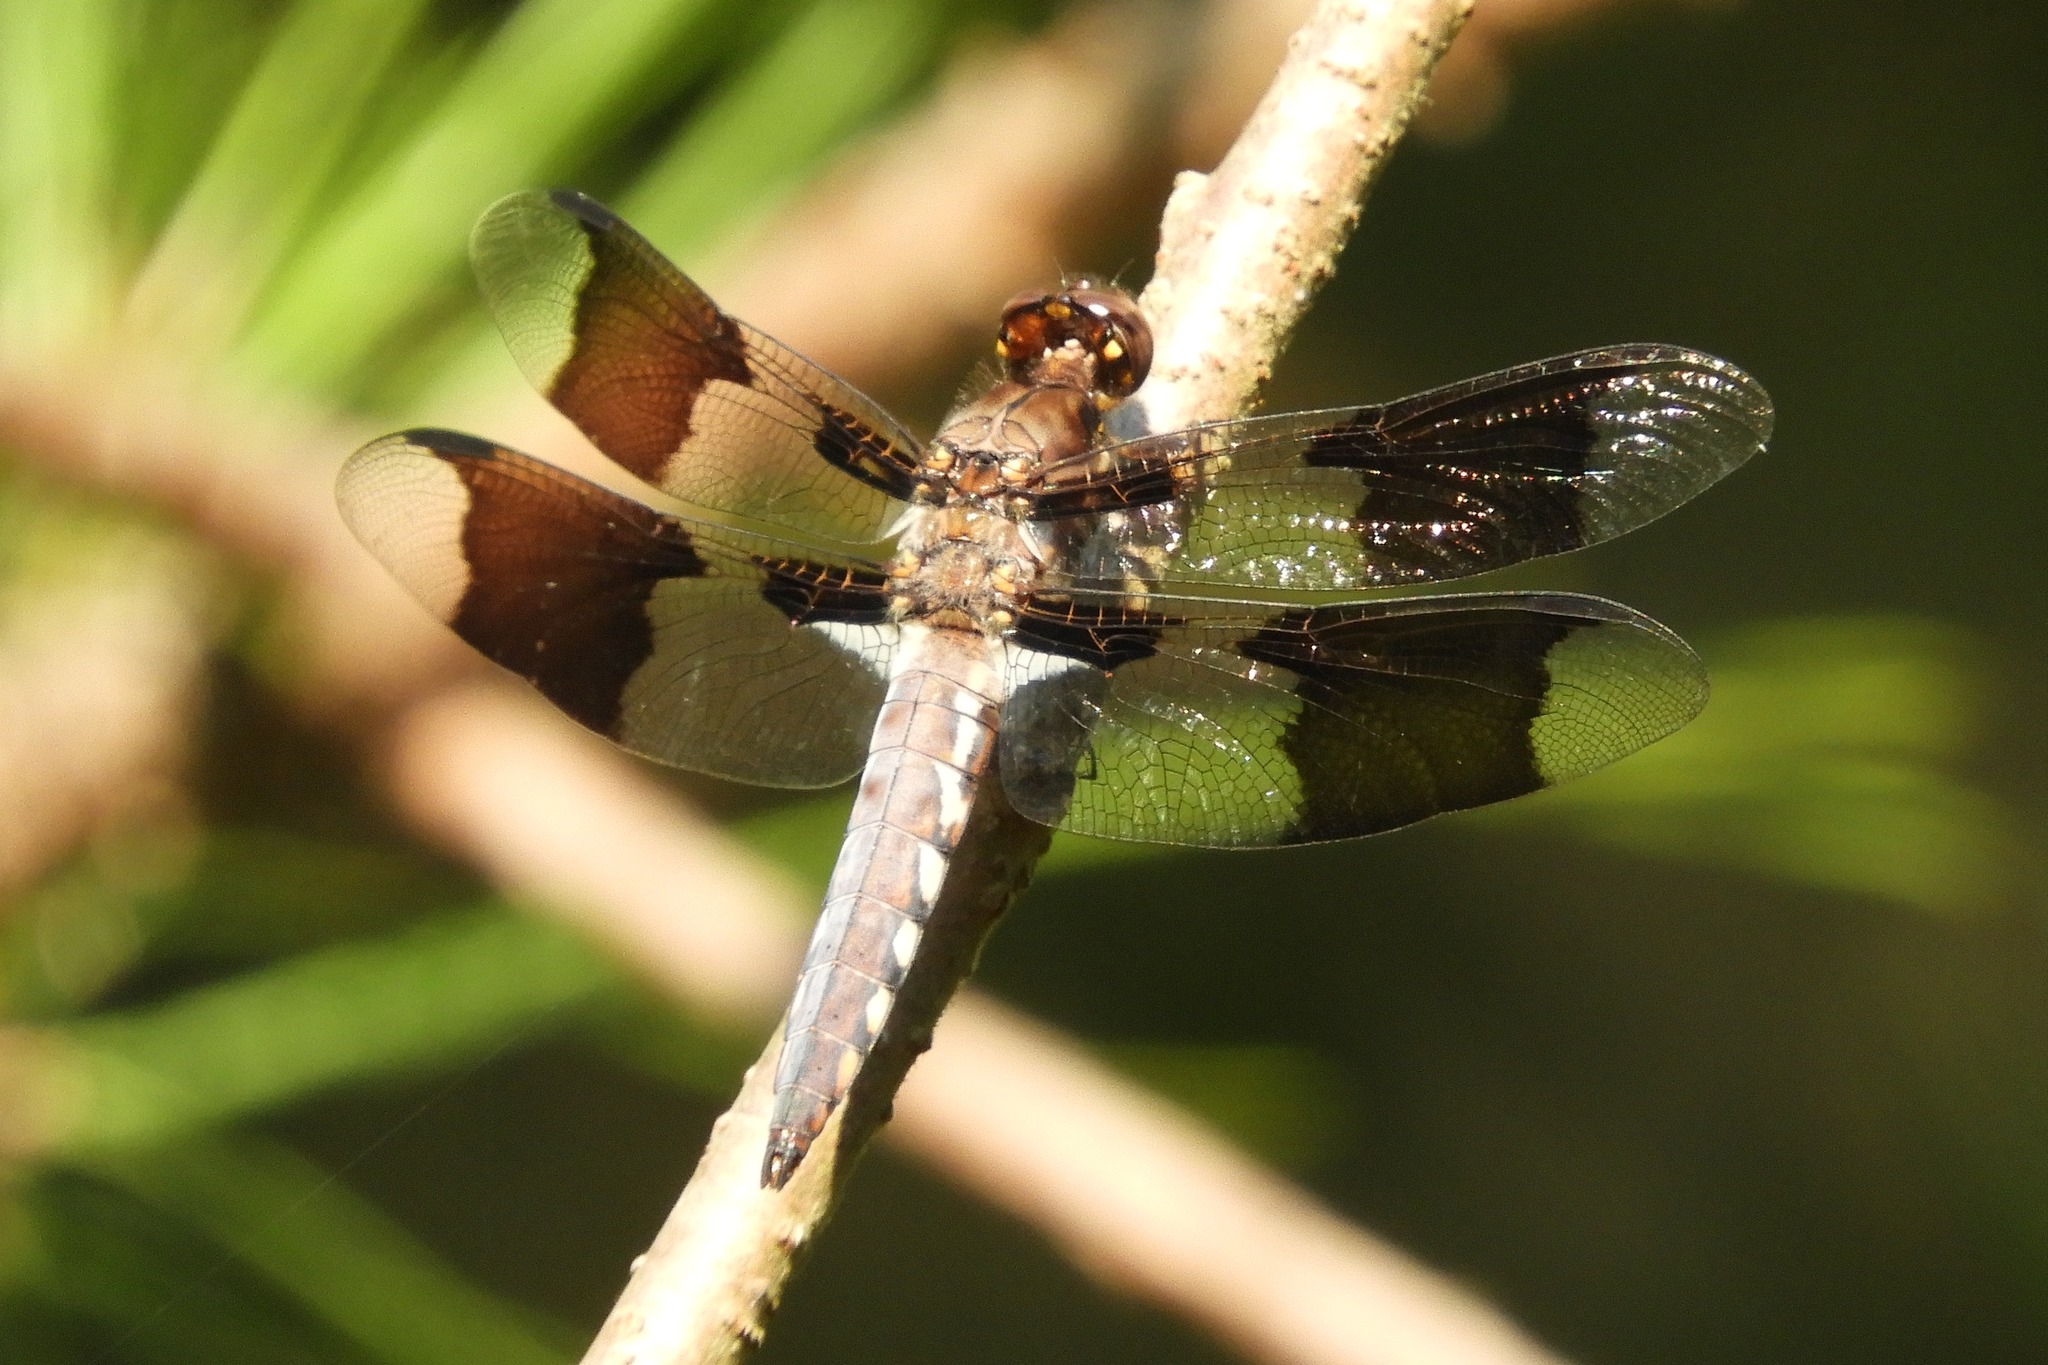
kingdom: Animalia
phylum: Arthropoda
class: Insecta
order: Odonata
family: Libellulidae
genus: Plathemis
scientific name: Plathemis lydia
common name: Common whitetail
